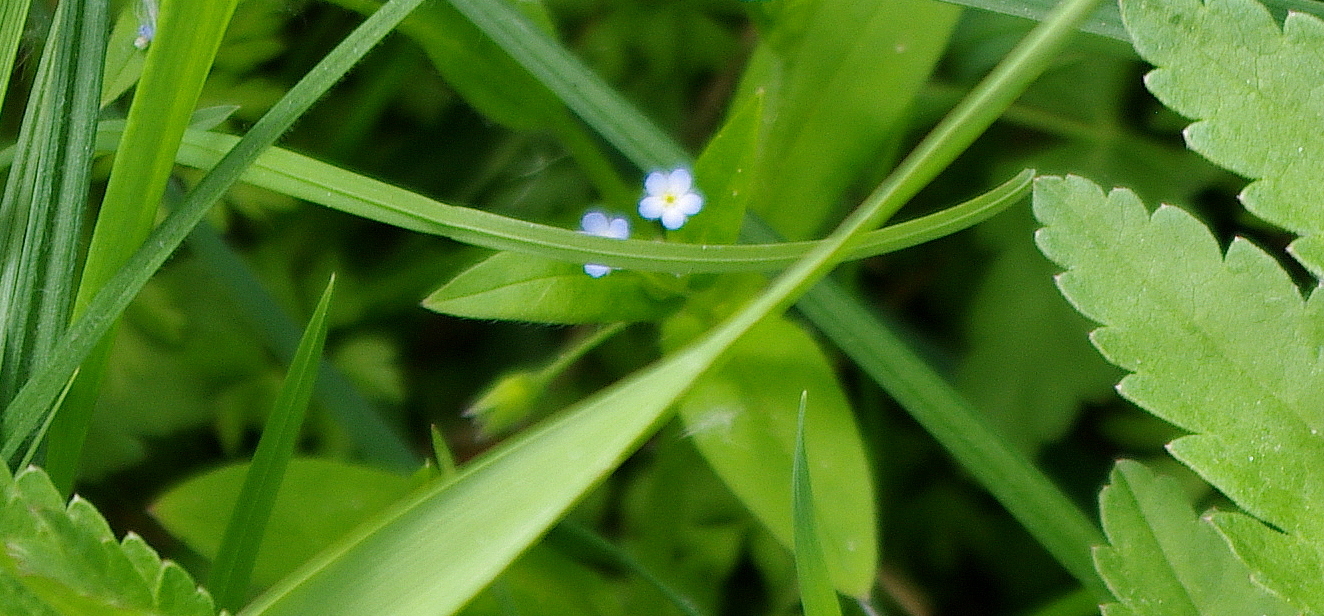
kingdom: Plantae
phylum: Tracheophyta
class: Magnoliopsida
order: Boraginales
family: Boraginaceae
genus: Myosotis
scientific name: Myosotis sparsiflora
